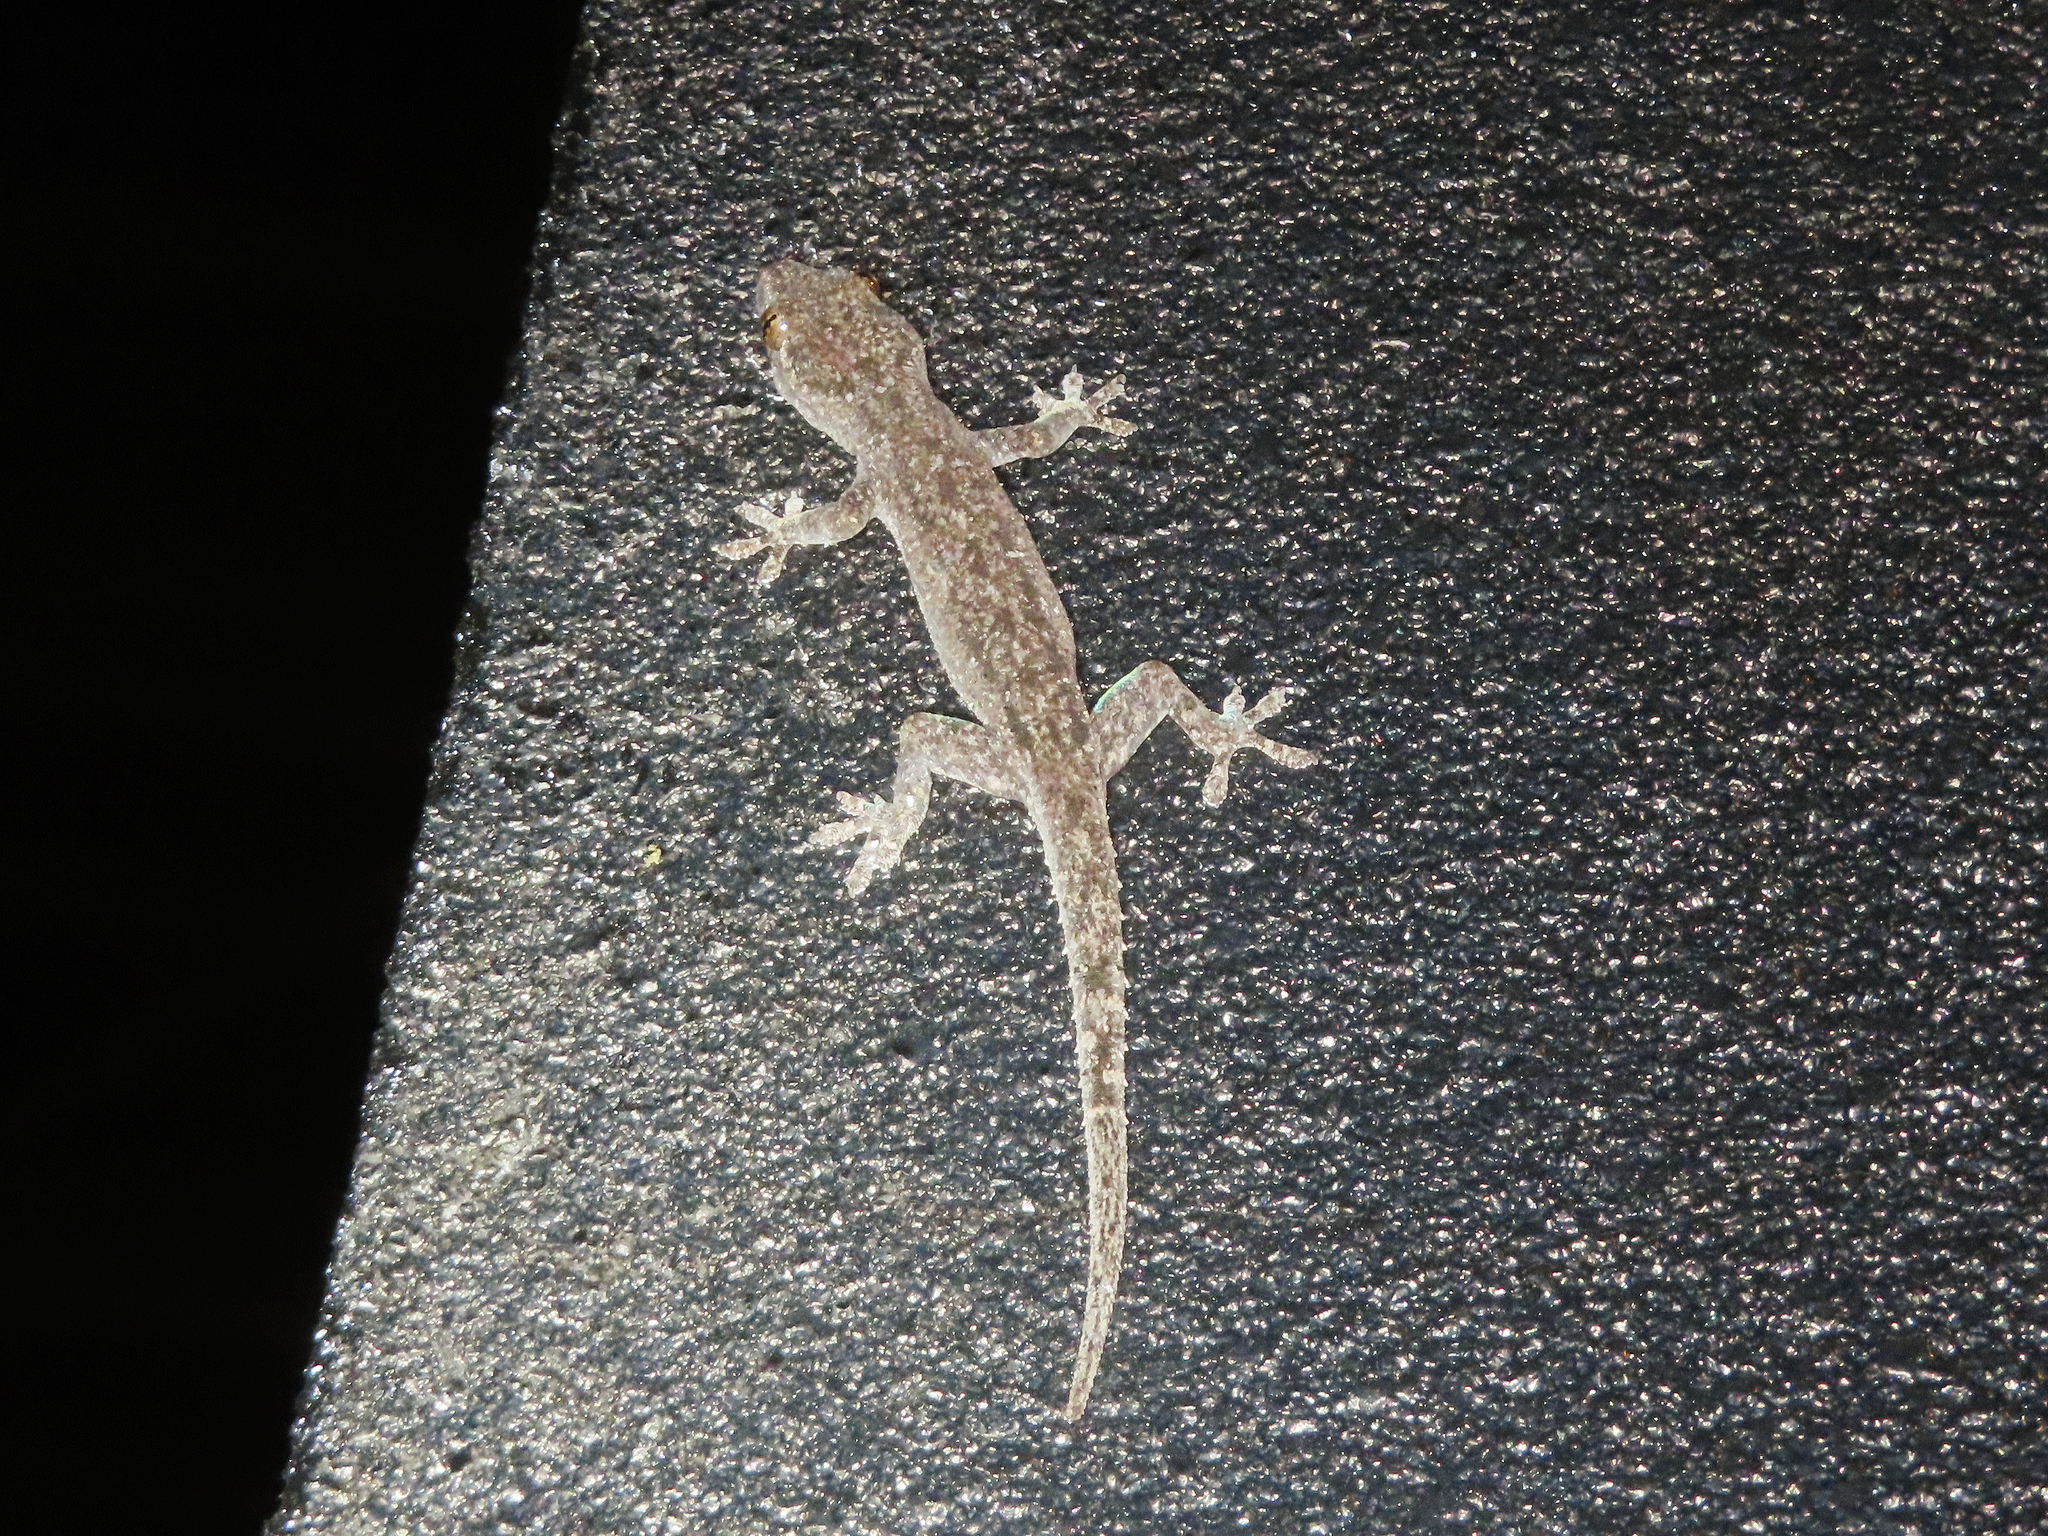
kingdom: Animalia
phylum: Chordata
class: Squamata
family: Gekkonidae
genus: Hemidactylus
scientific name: Hemidactylus frenatus
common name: Common house gecko
